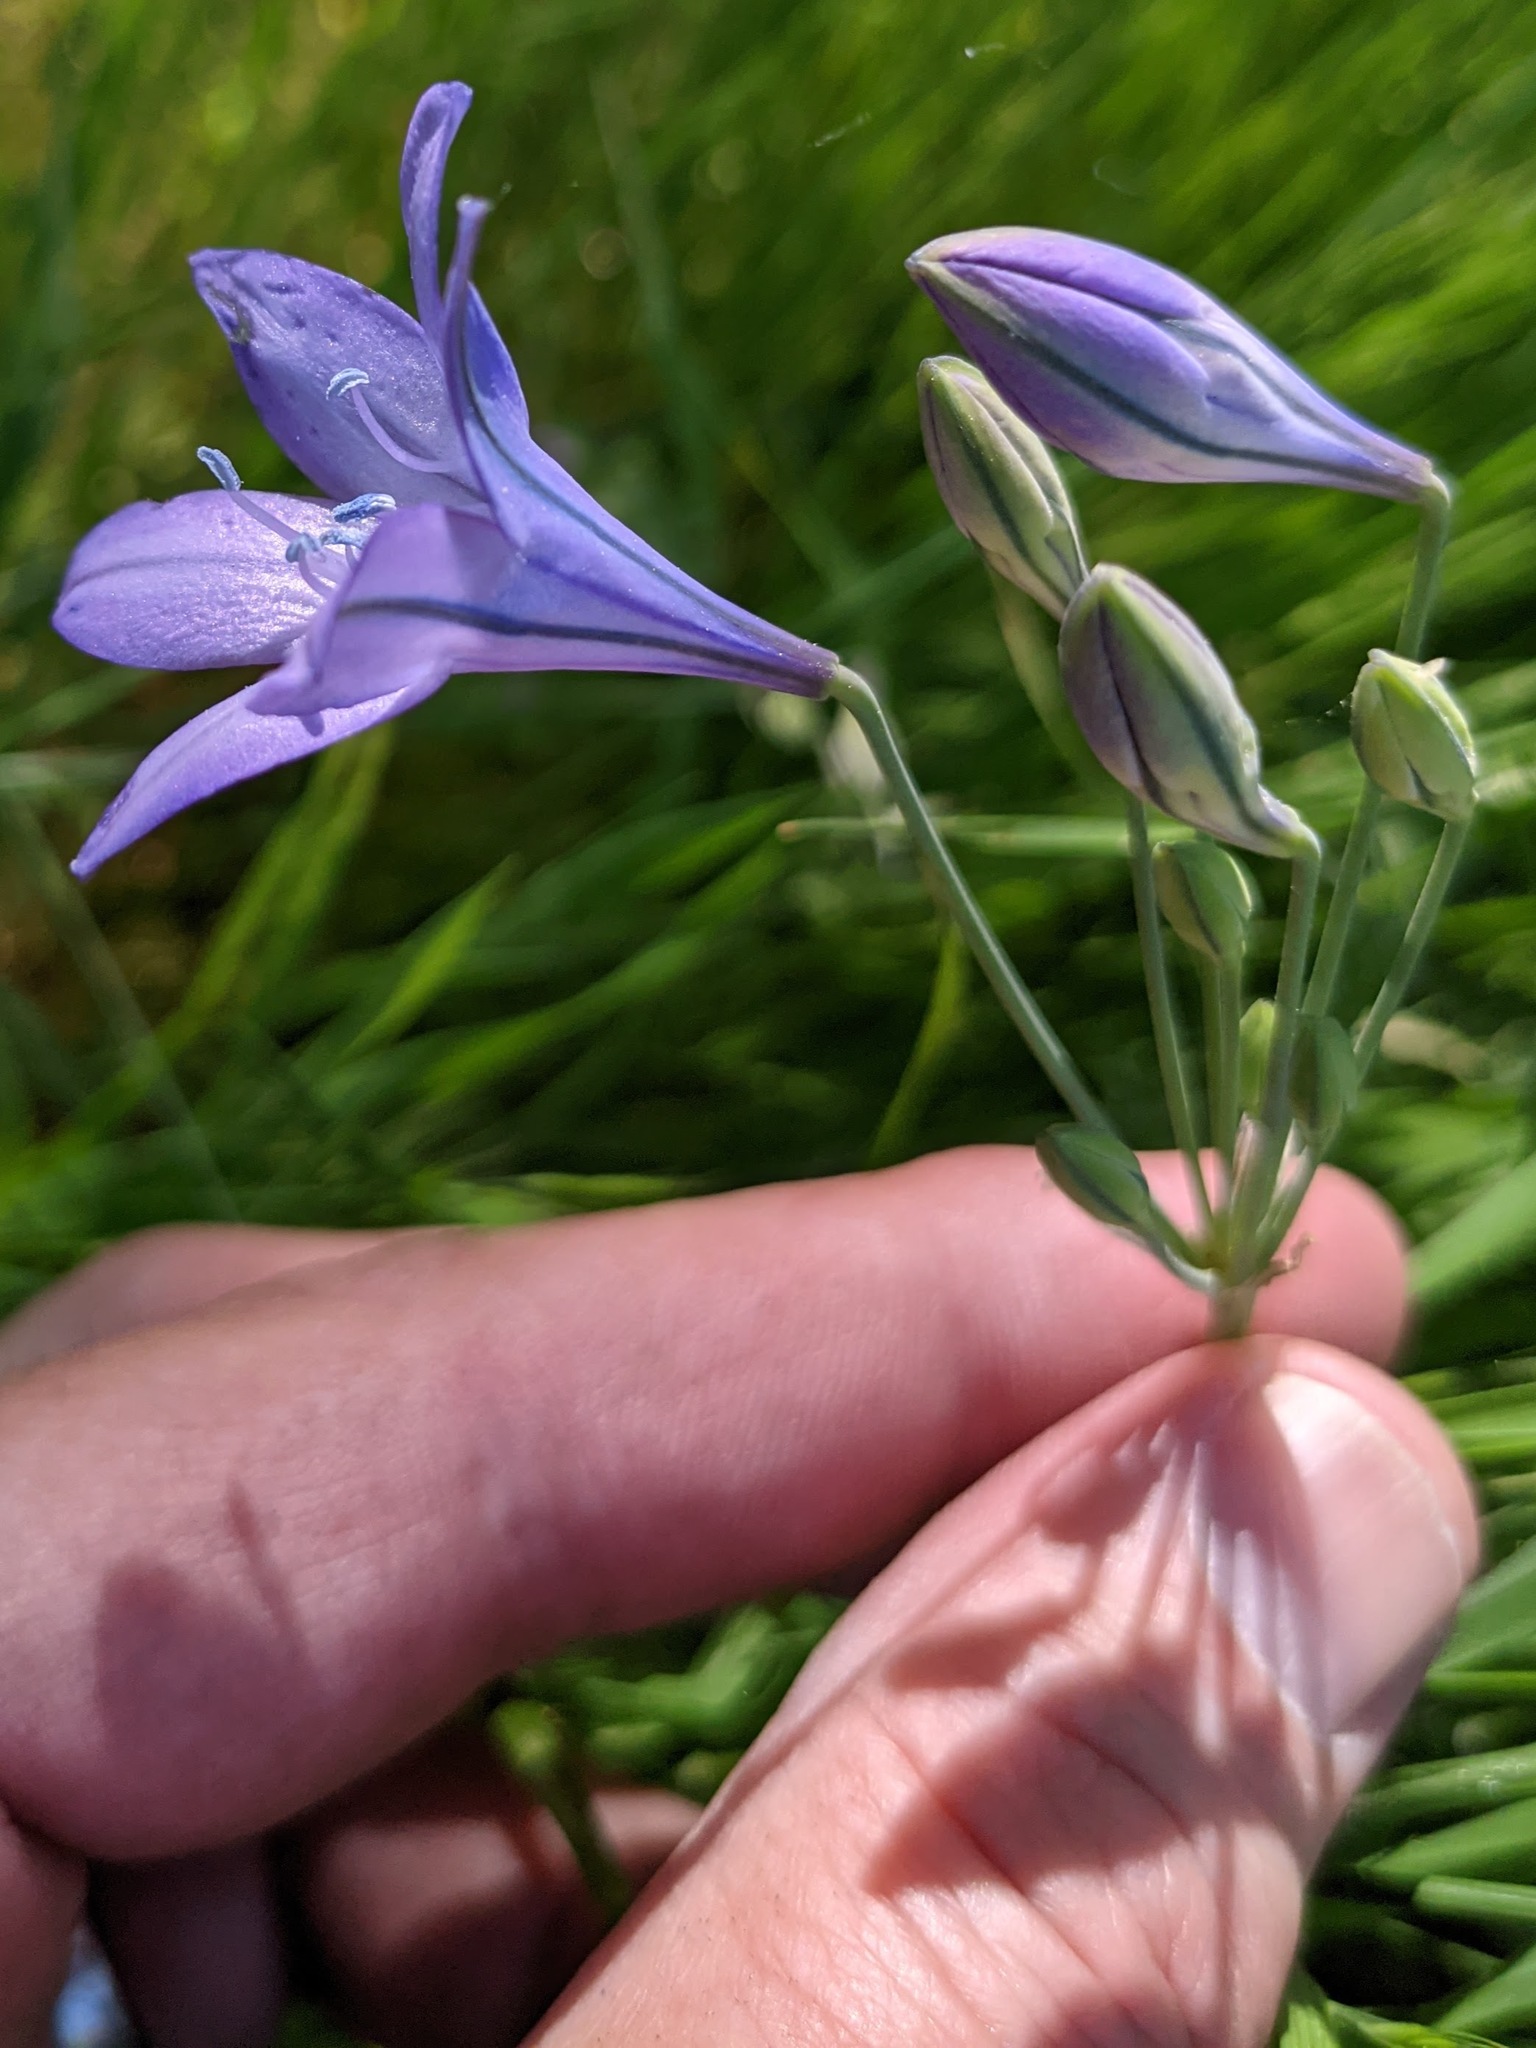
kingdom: Plantae
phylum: Tracheophyta
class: Liliopsida
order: Asparagales
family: Asparagaceae
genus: Triteleia
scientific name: Triteleia laxa
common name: Triplet-lily
